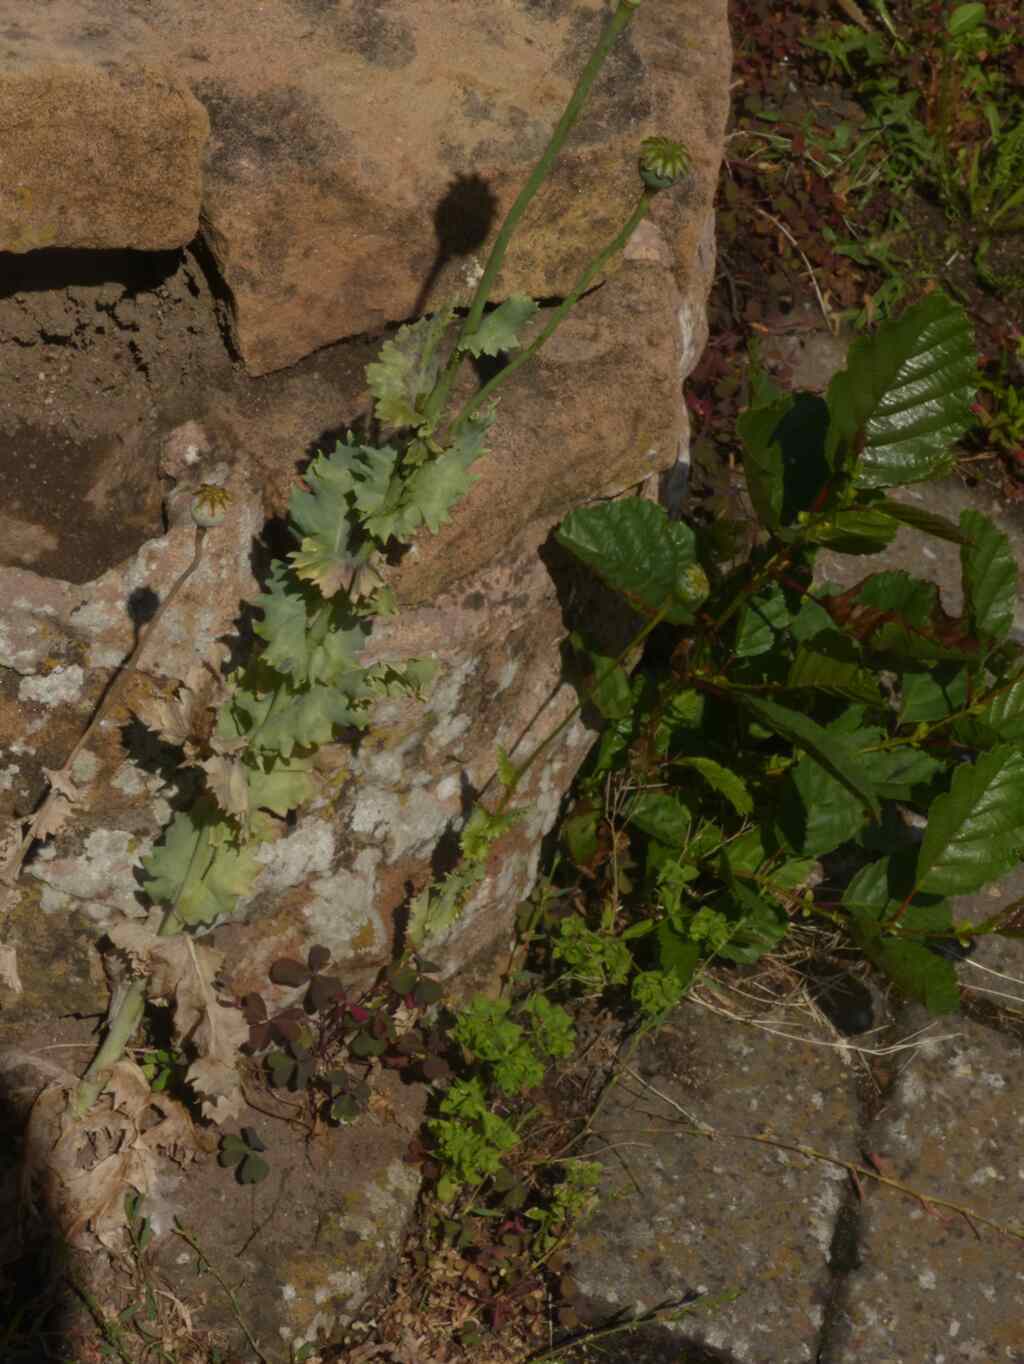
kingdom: Plantae
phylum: Tracheophyta
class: Magnoliopsida
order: Ranunculales
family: Papaveraceae
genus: Papaver
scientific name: Papaver somniferum
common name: Opium poppy
